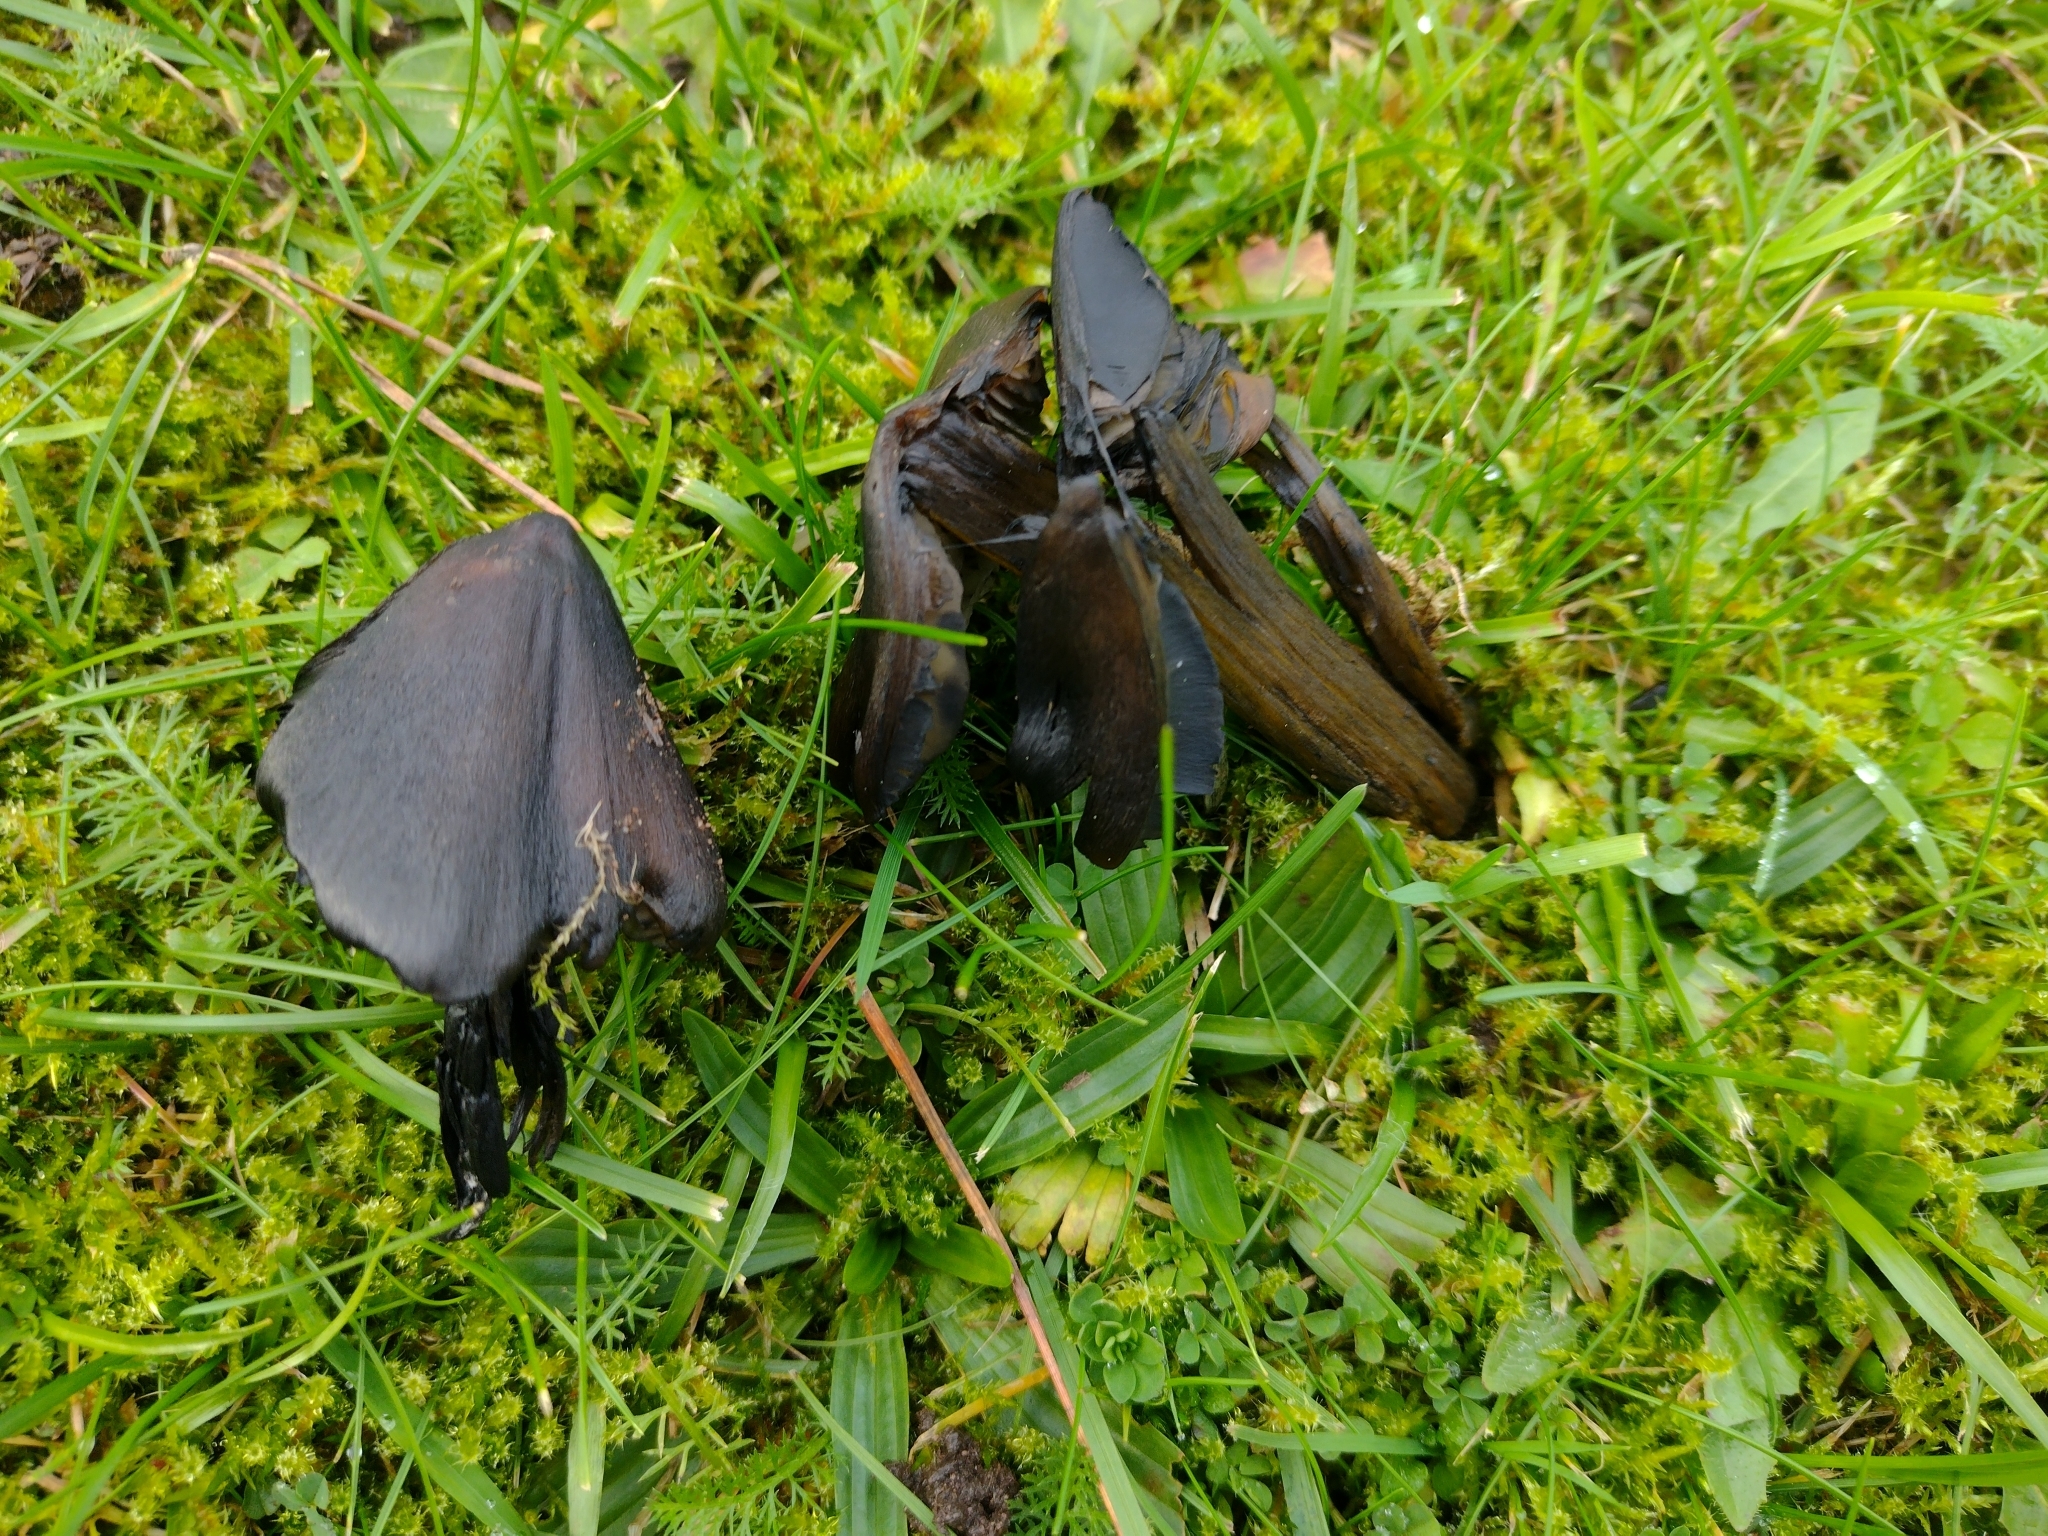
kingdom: Fungi
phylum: Basidiomycota
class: Agaricomycetes
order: Agaricales
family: Hygrophoraceae
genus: Hygrocybe
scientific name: Hygrocybe conica
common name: Blackening wax-cap
